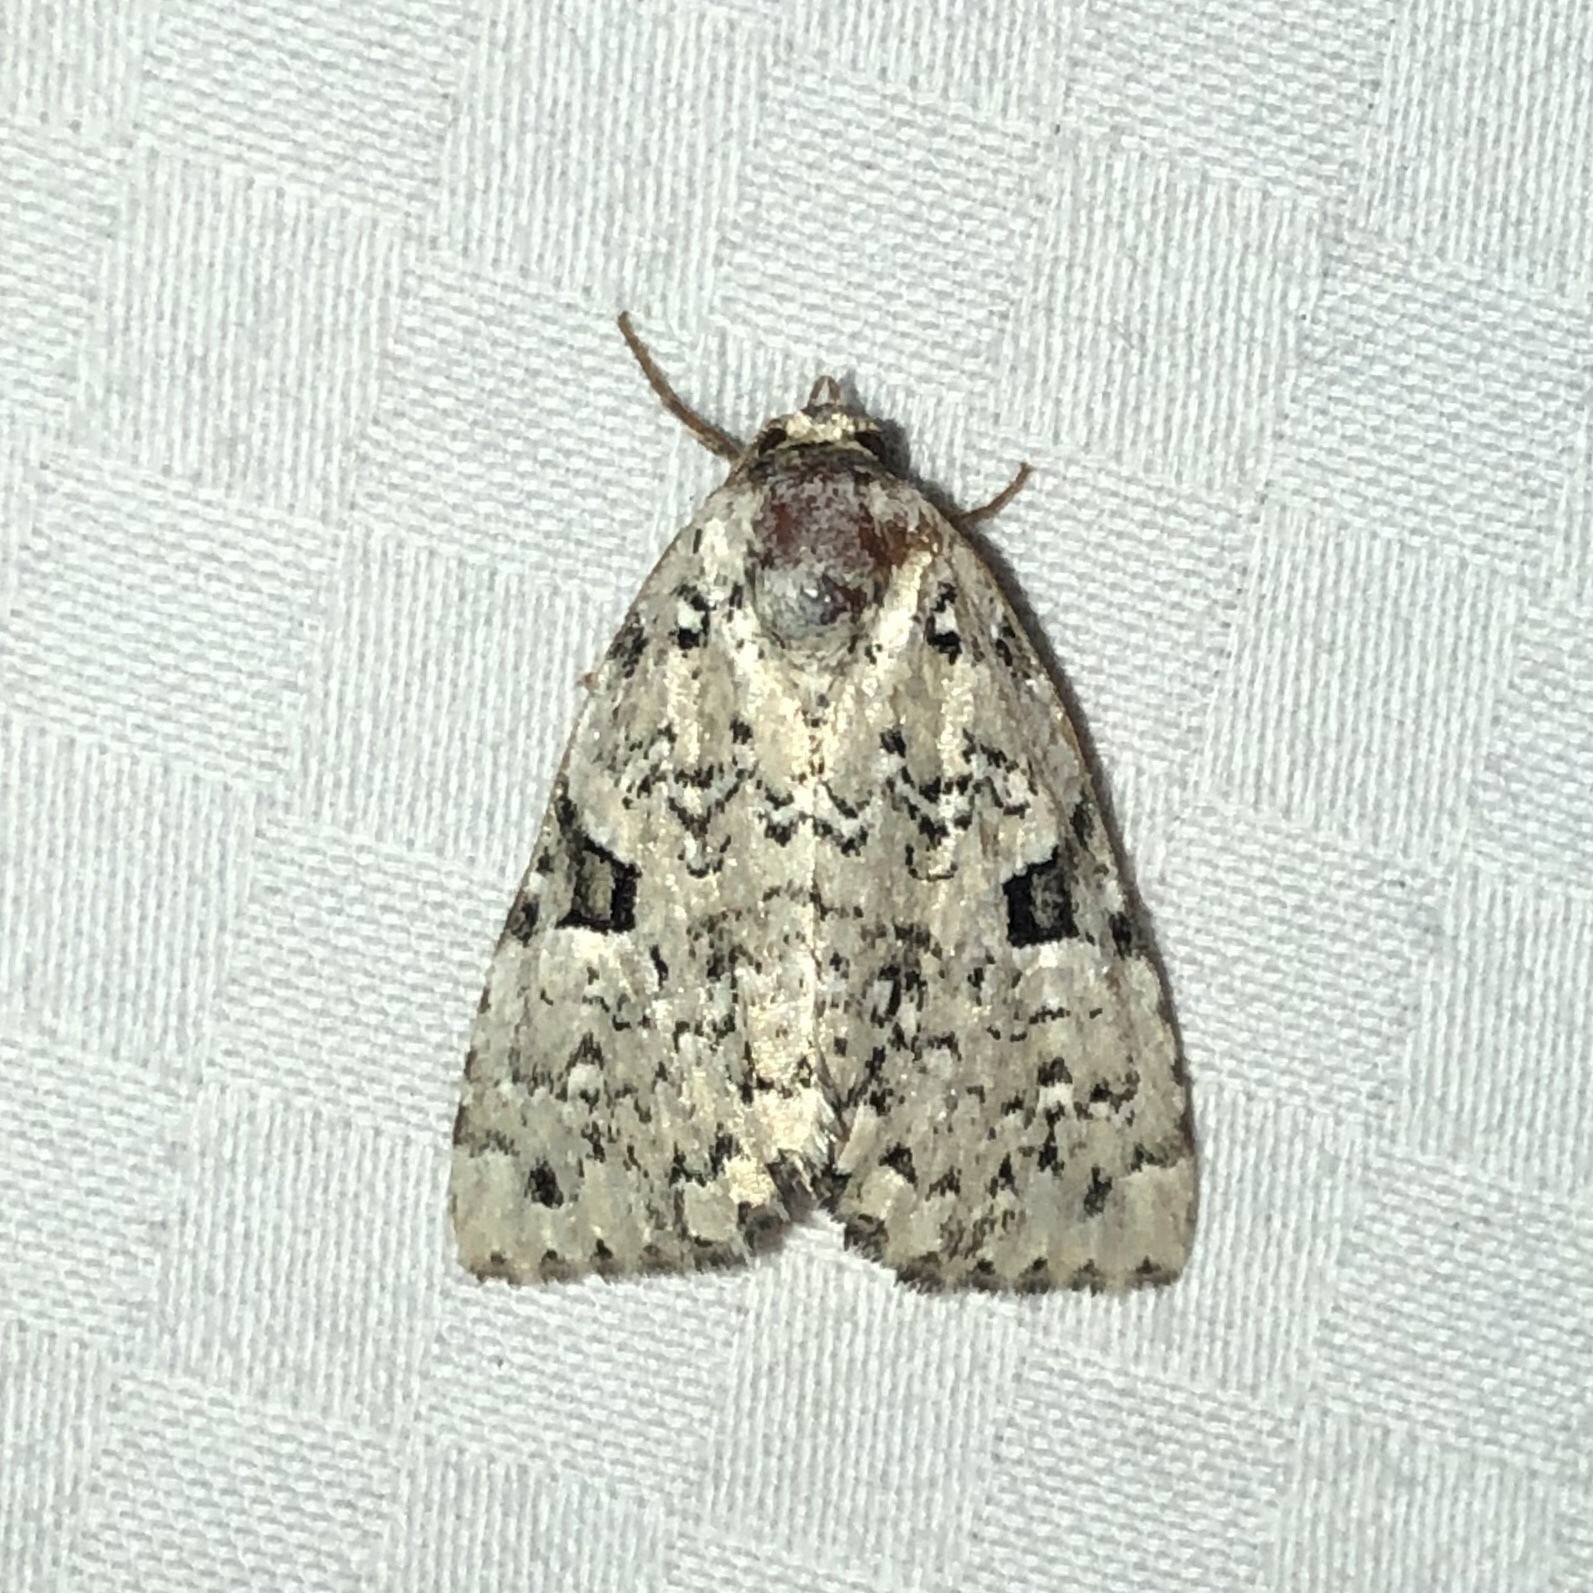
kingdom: Animalia
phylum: Arthropoda
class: Insecta
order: Lepidoptera
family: Noctuidae
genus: Leuconycta
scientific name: Leuconycta diphteroides
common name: Green leuconycta moth
